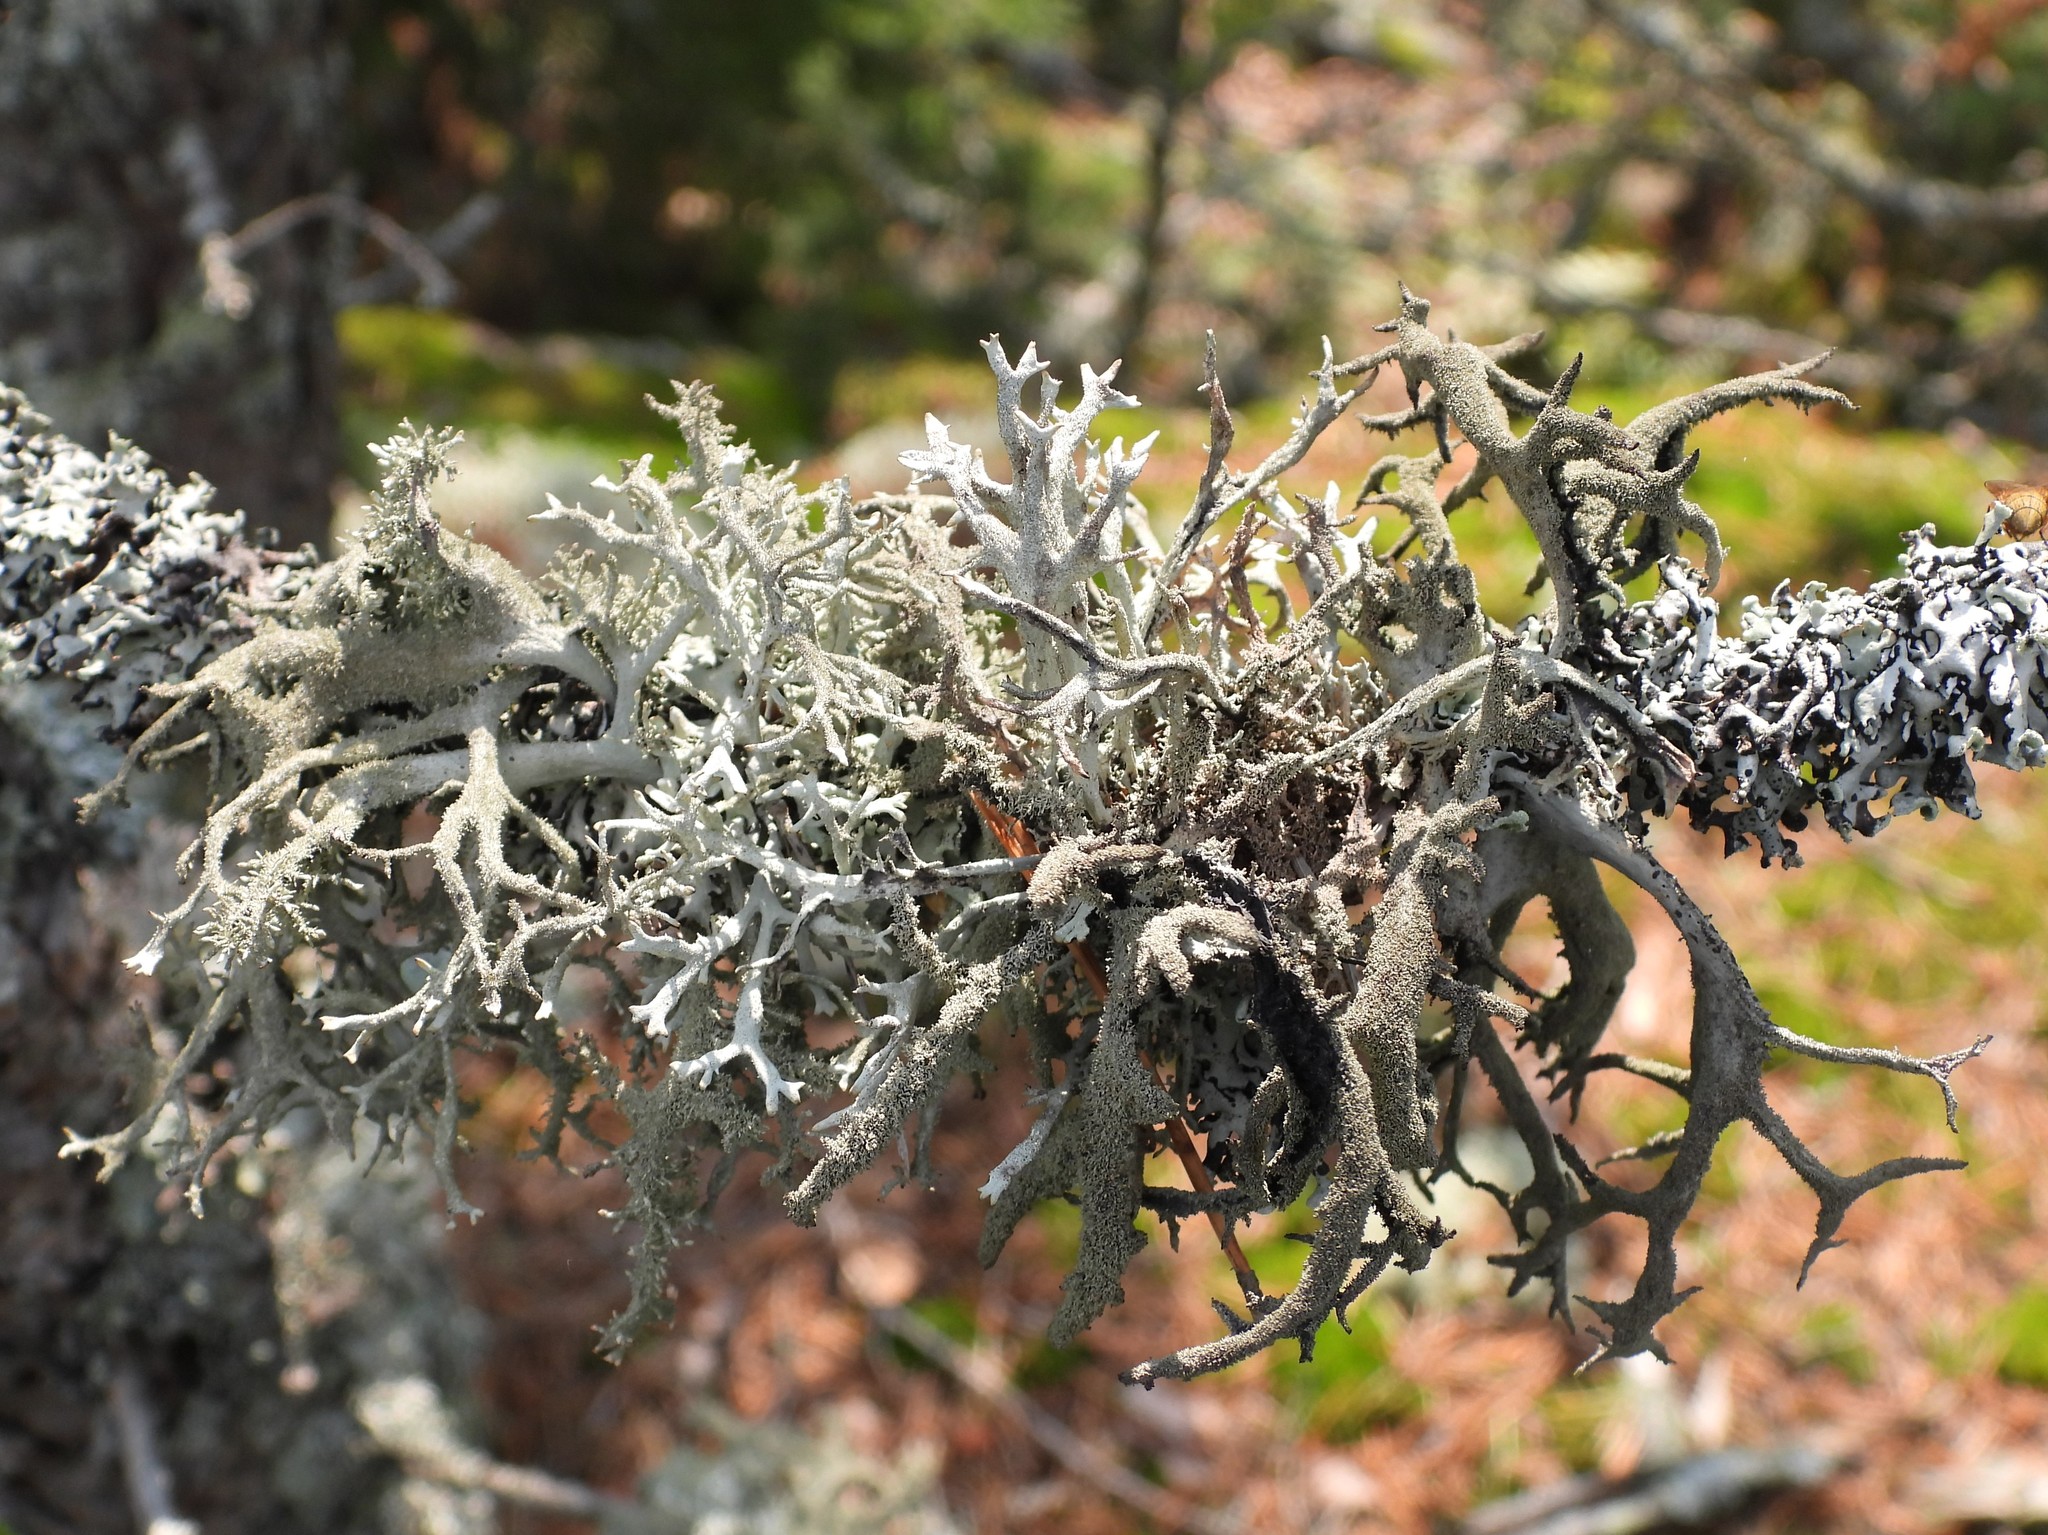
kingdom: Fungi
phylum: Ascomycota
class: Lecanoromycetes
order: Lecanorales
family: Parmeliaceae
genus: Pseudevernia
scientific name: Pseudevernia furfuracea
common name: Tree moss
